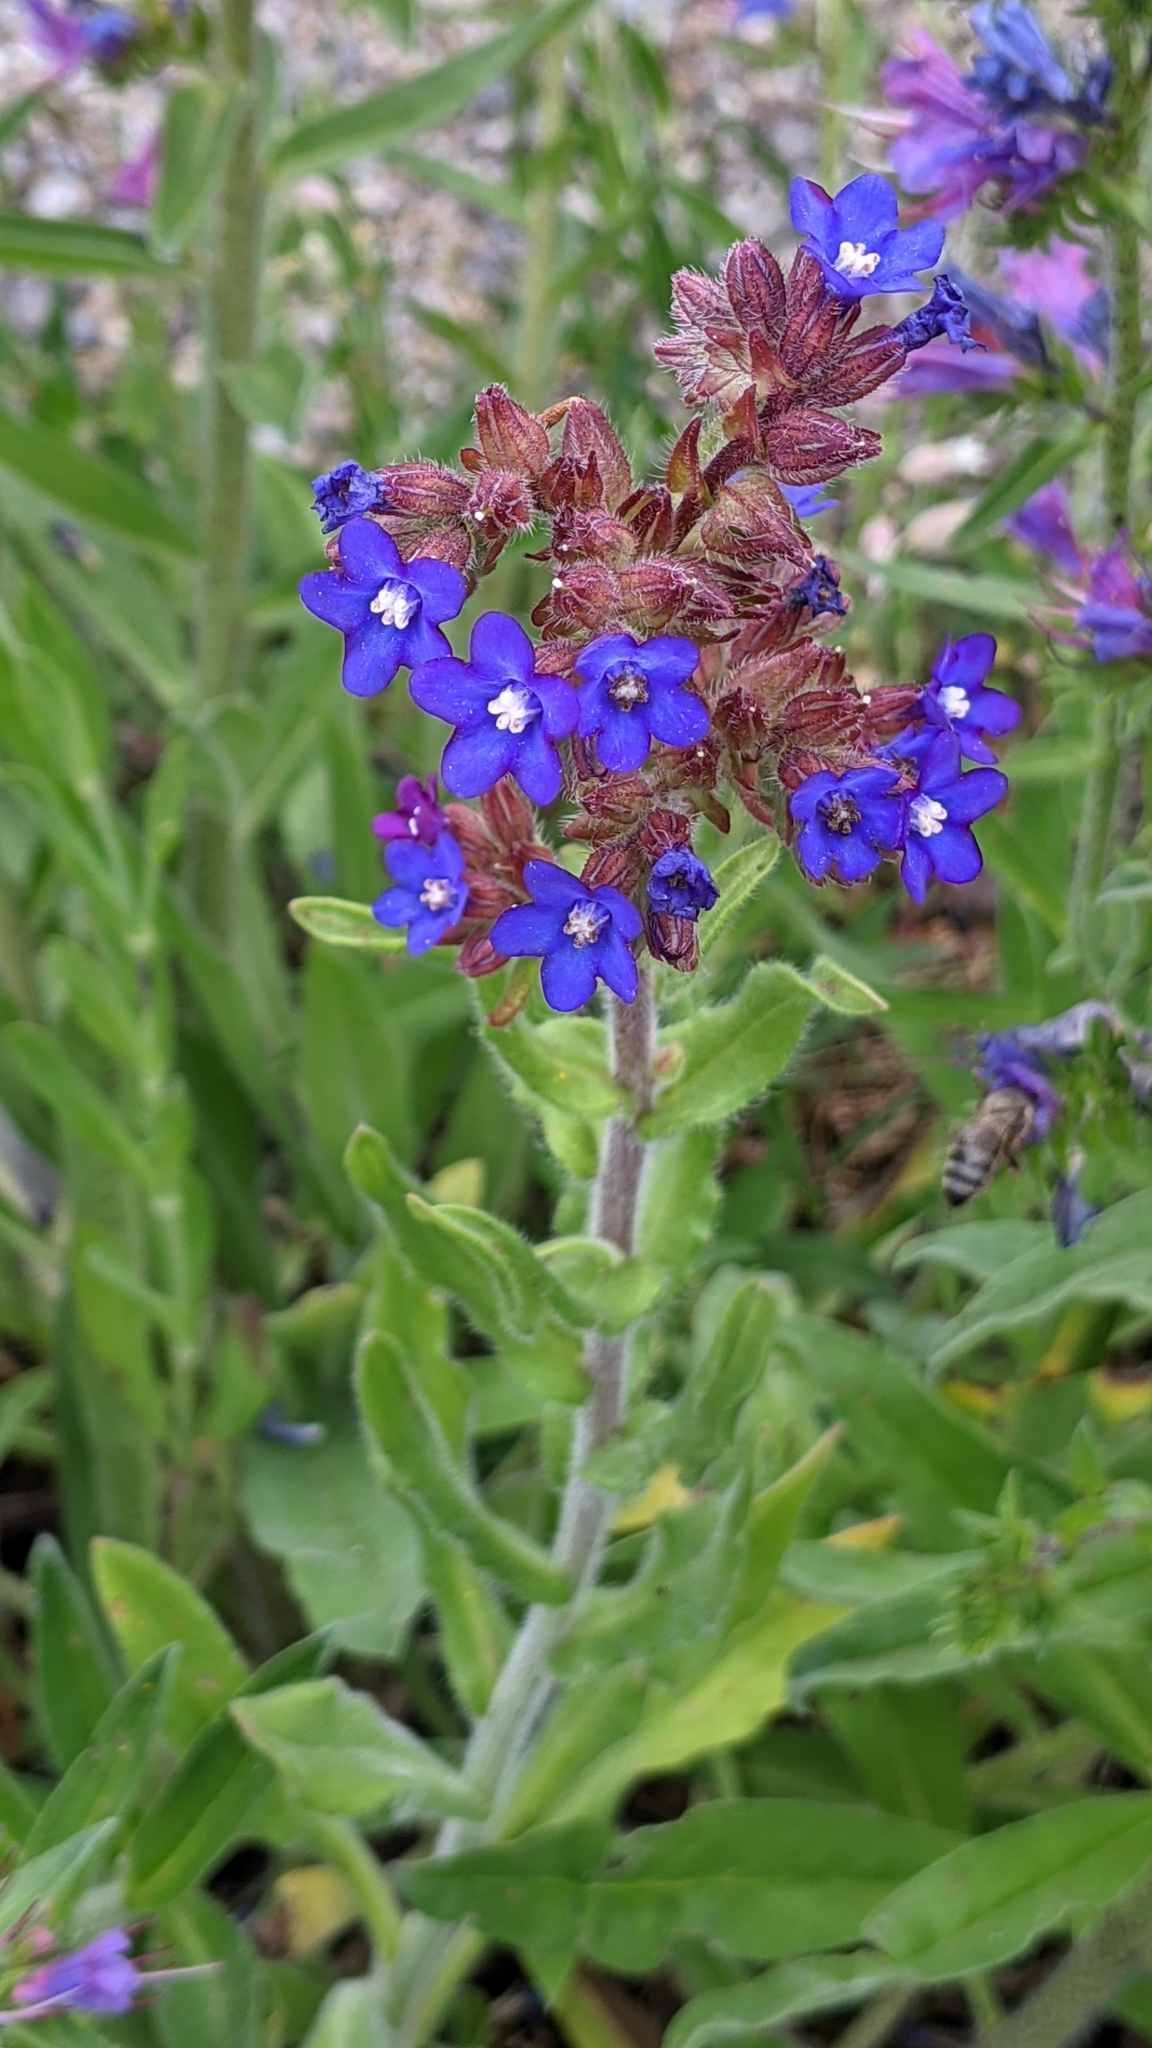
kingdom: Plantae
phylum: Tracheophyta
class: Magnoliopsida
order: Boraginales
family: Boraginaceae
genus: Anchusa
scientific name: Anchusa officinalis
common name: Alkanet
